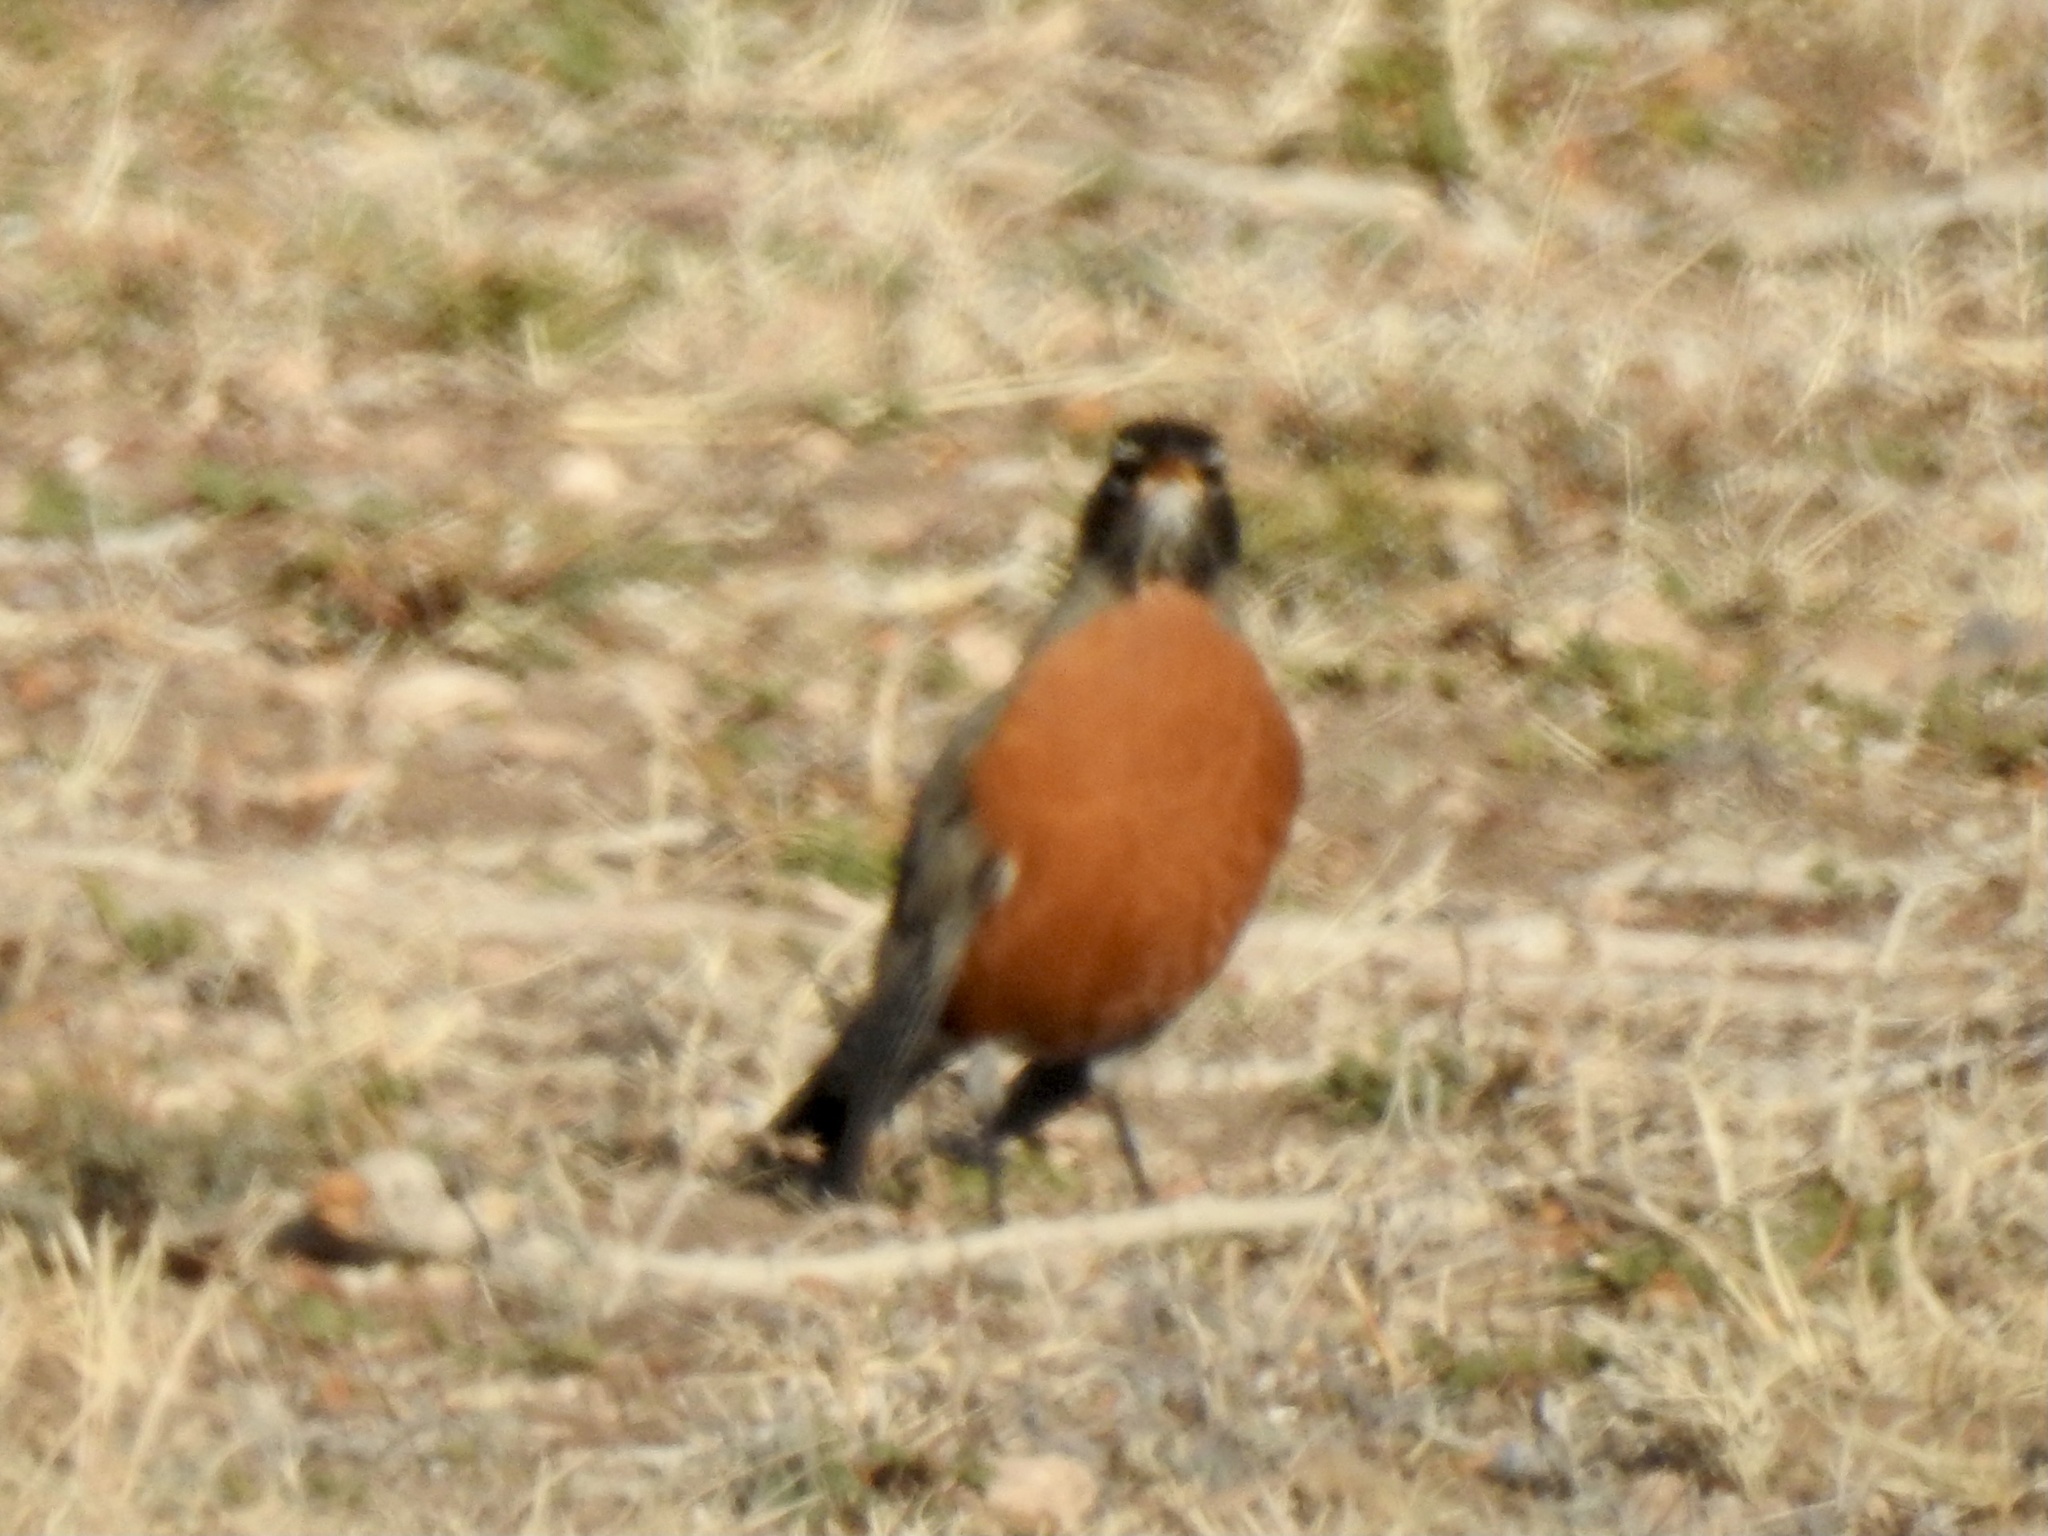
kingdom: Animalia
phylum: Chordata
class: Aves
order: Passeriformes
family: Turdidae
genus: Turdus
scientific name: Turdus migratorius
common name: American robin
